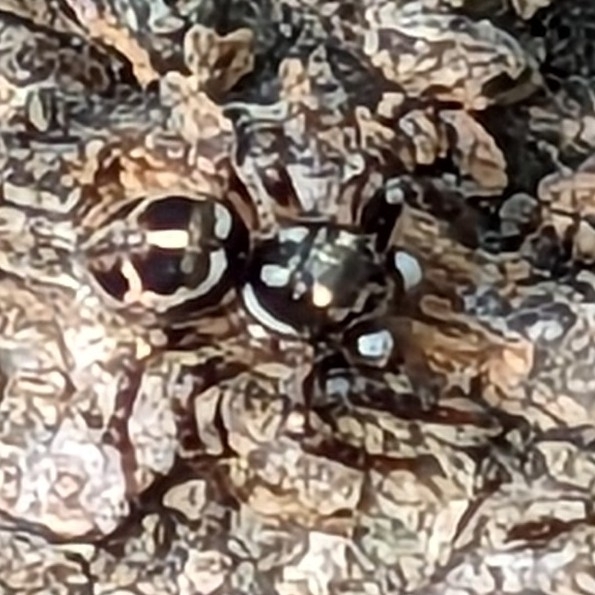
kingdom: Animalia
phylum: Arthropoda
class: Arachnida
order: Araneae
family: Salticidae
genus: Anasaitis
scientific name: Anasaitis canosa
